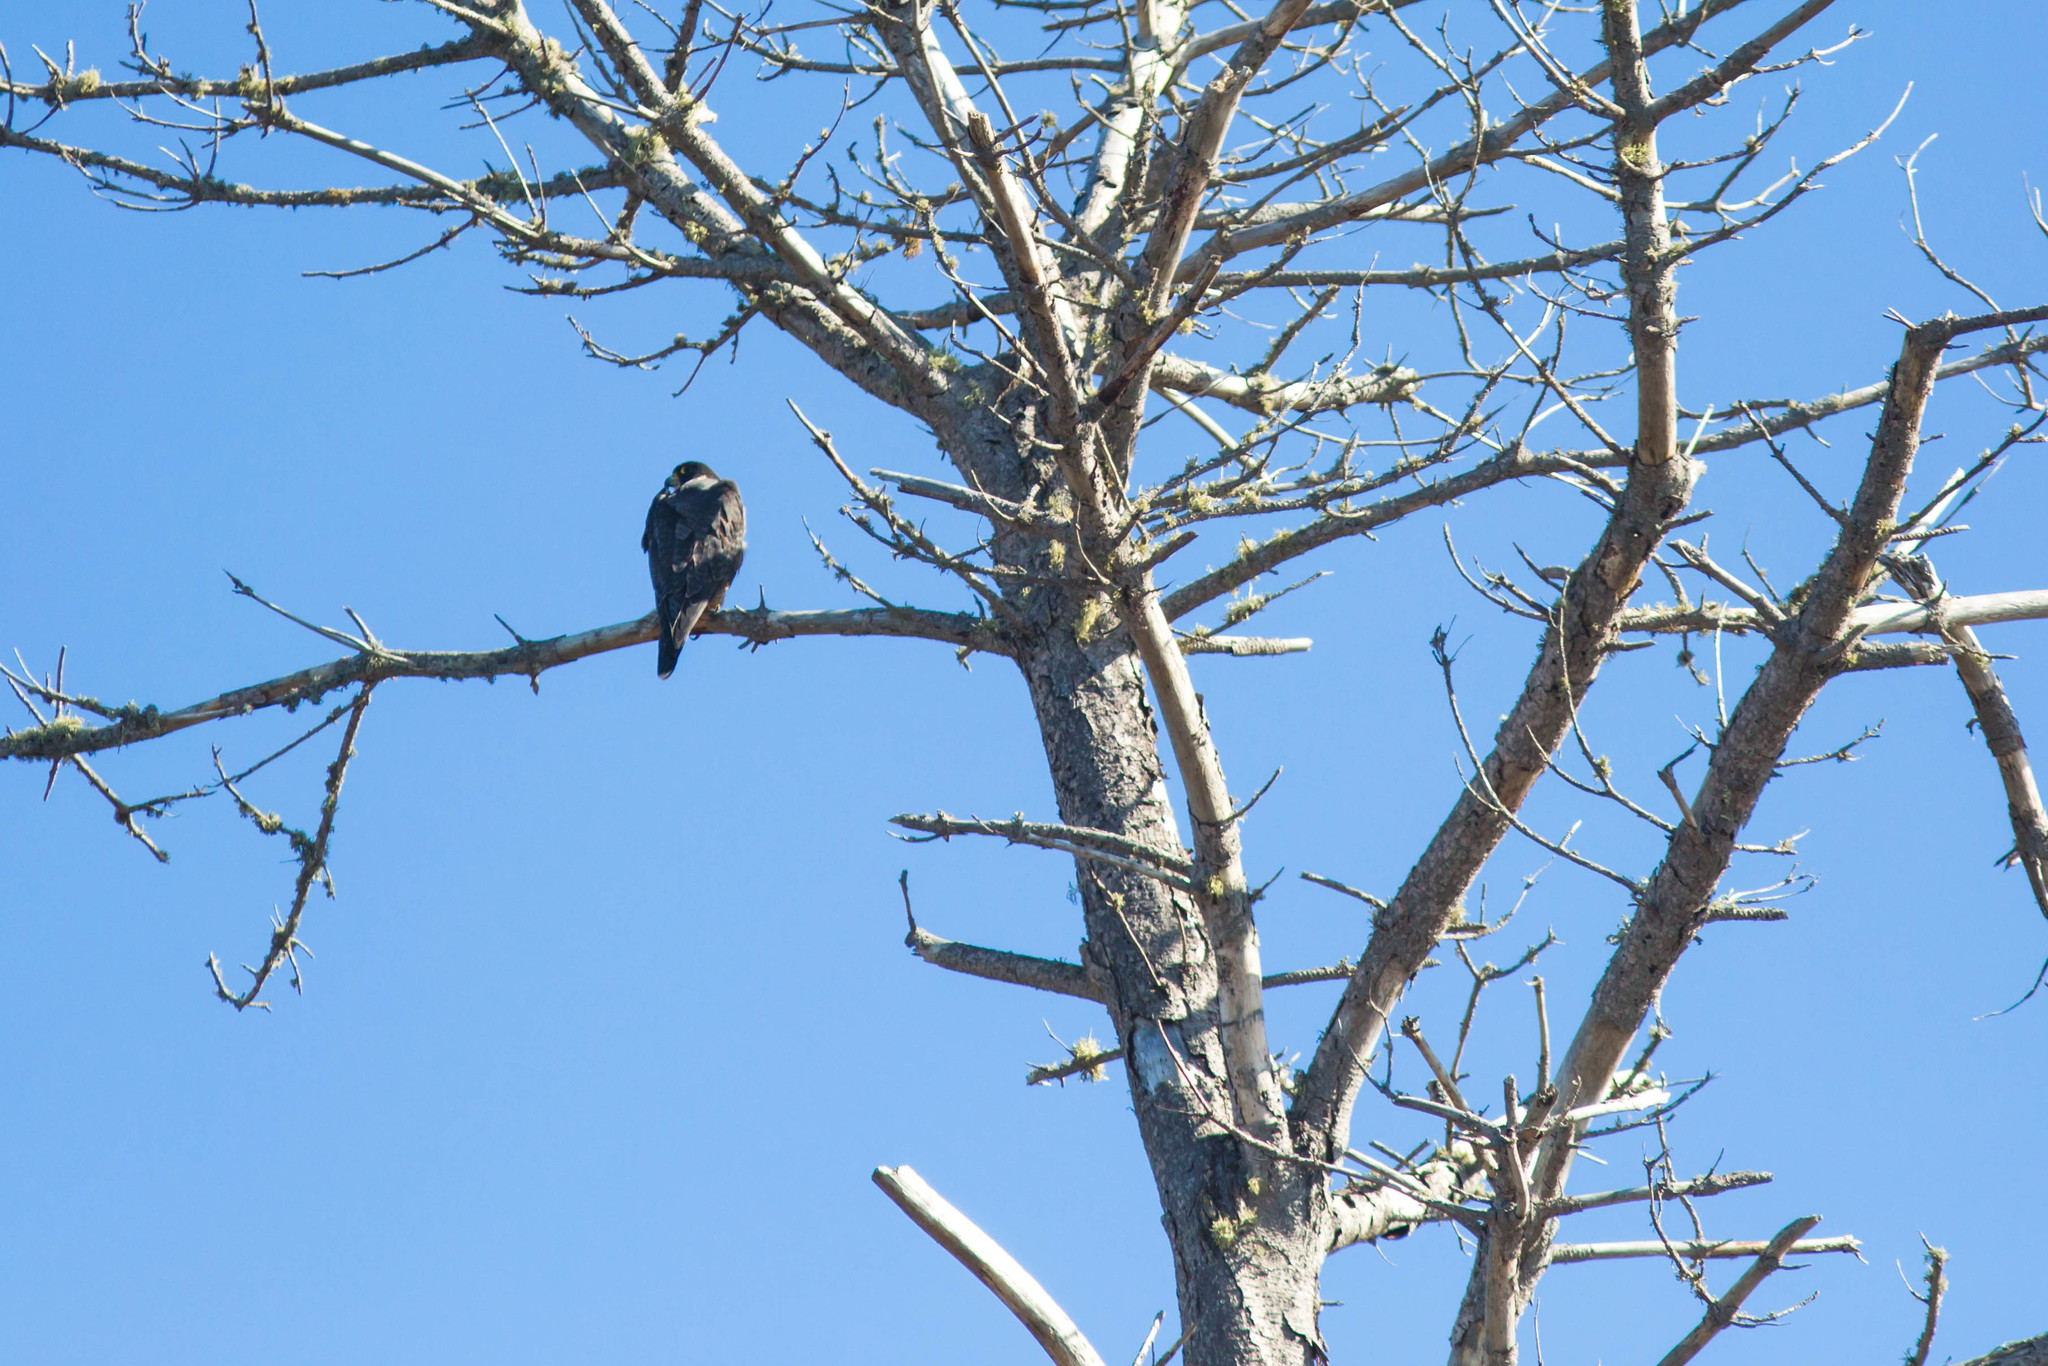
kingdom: Animalia
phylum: Chordata
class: Aves
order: Falconiformes
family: Falconidae
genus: Falco
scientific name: Falco peregrinus
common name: Peregrine falcon
